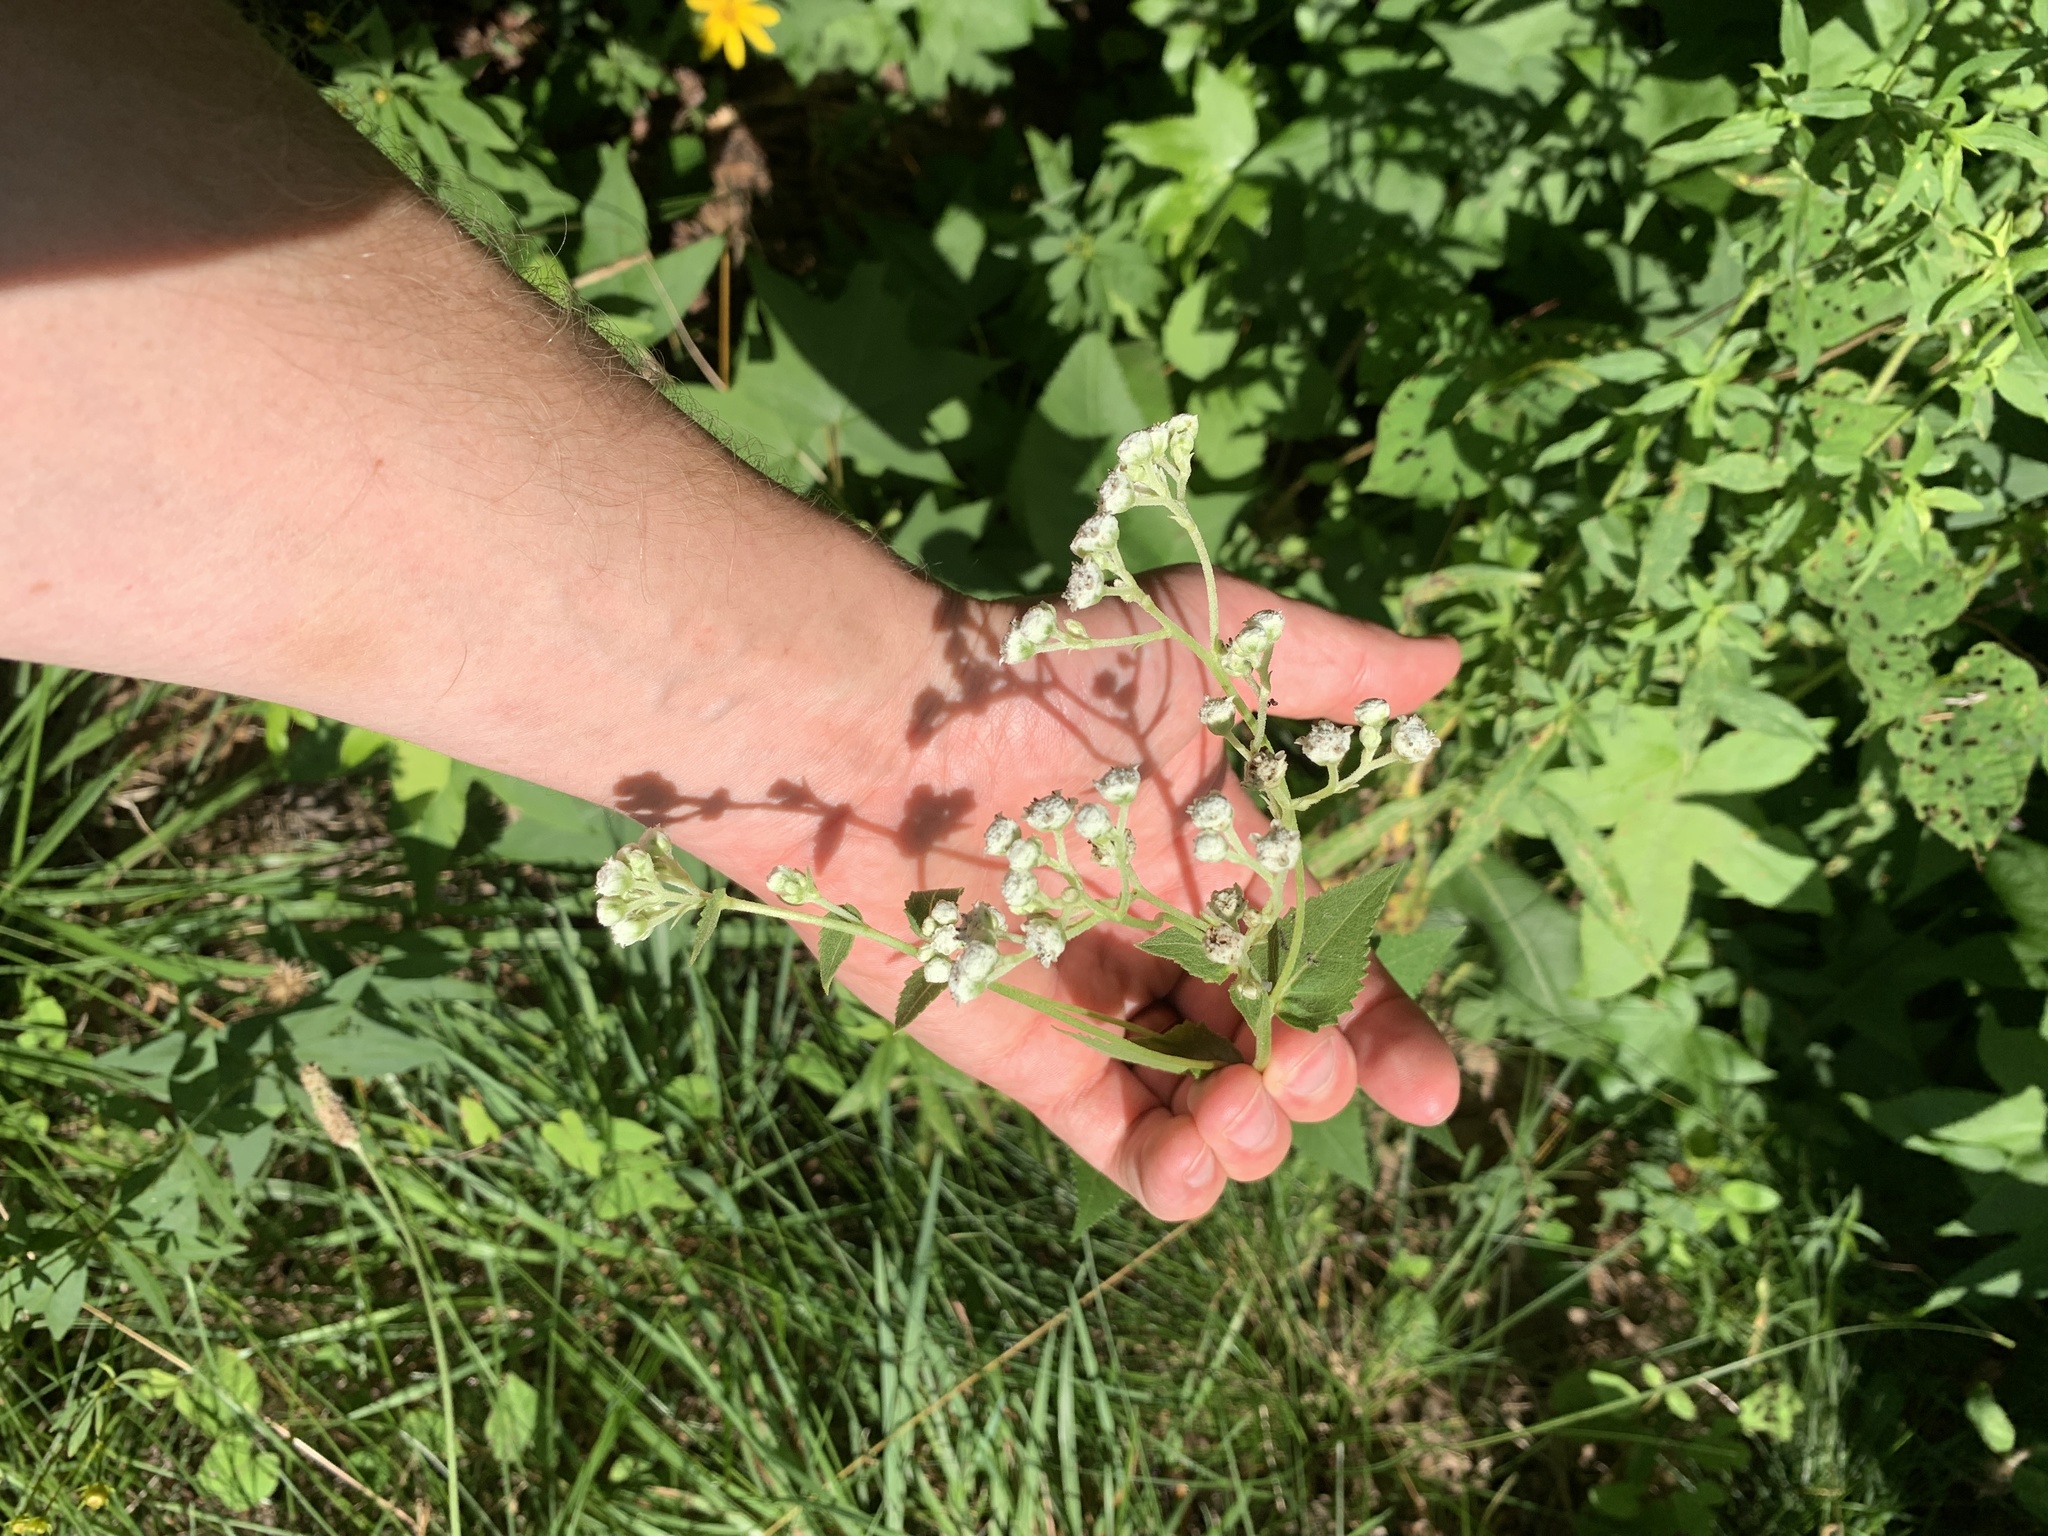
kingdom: Plantae
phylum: Tracheophyta
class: Magnoliopsida
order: Asterales
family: Asteraceae
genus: Parthenium
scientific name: Parthenium integrifolium
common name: American feverfew
